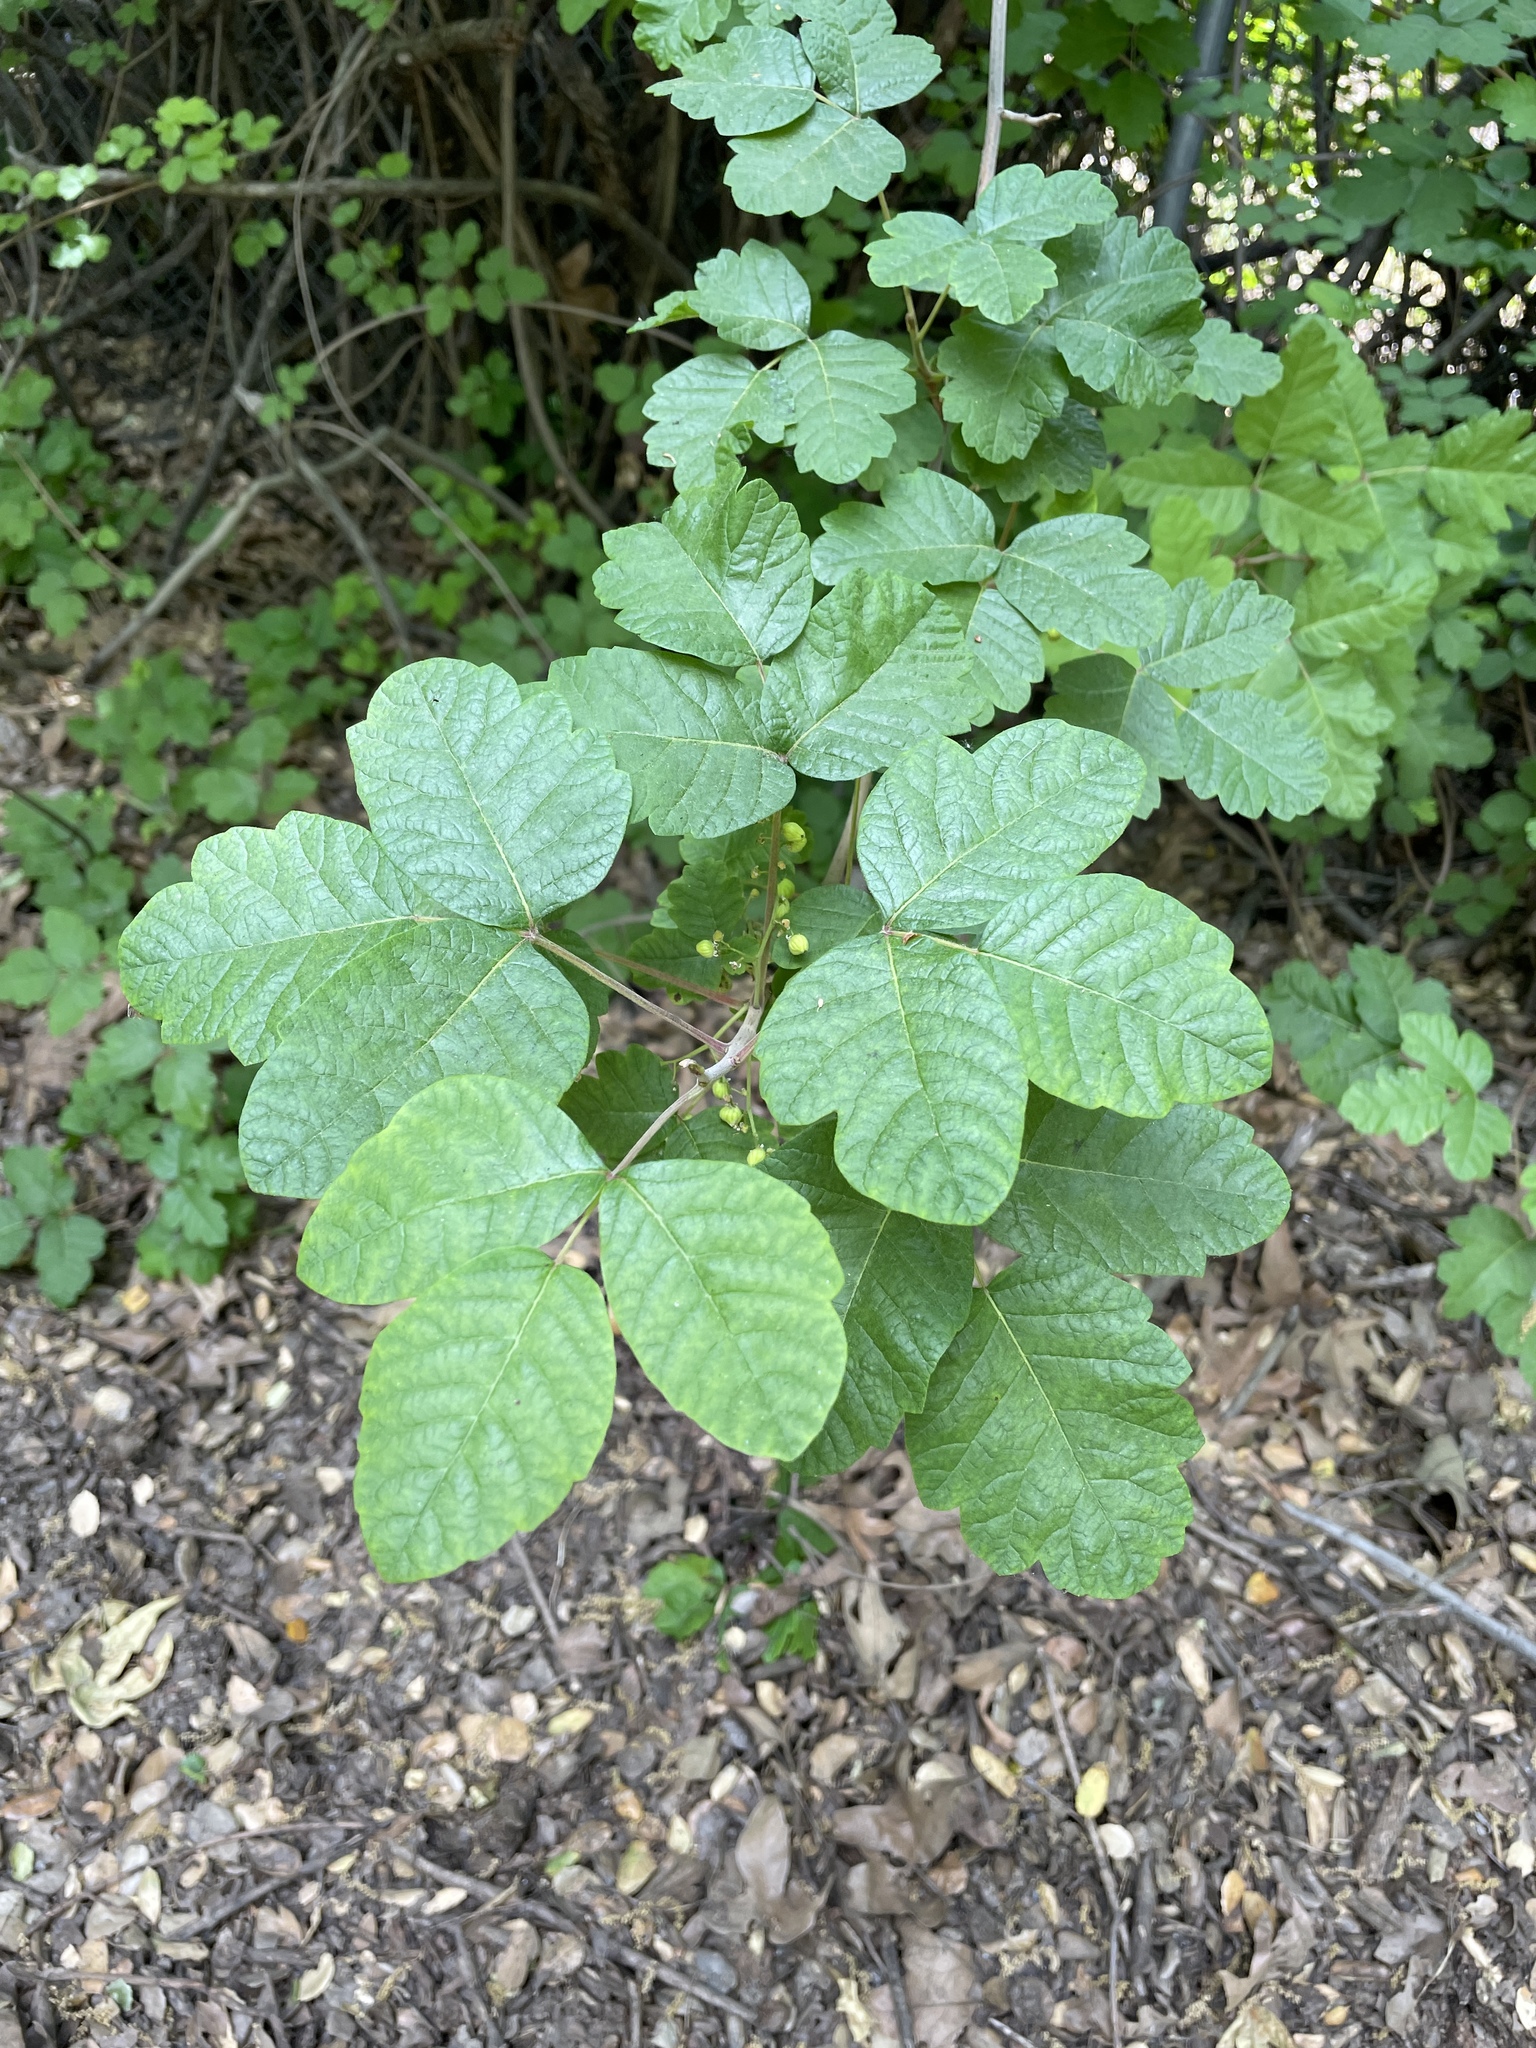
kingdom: Plantae
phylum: Tracheophyta
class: Magnoliopsida
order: Sapindales
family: Anacardiaceae
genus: Toxicodendron
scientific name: Toxicodendron diversilobum
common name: Pacific poison-oak
